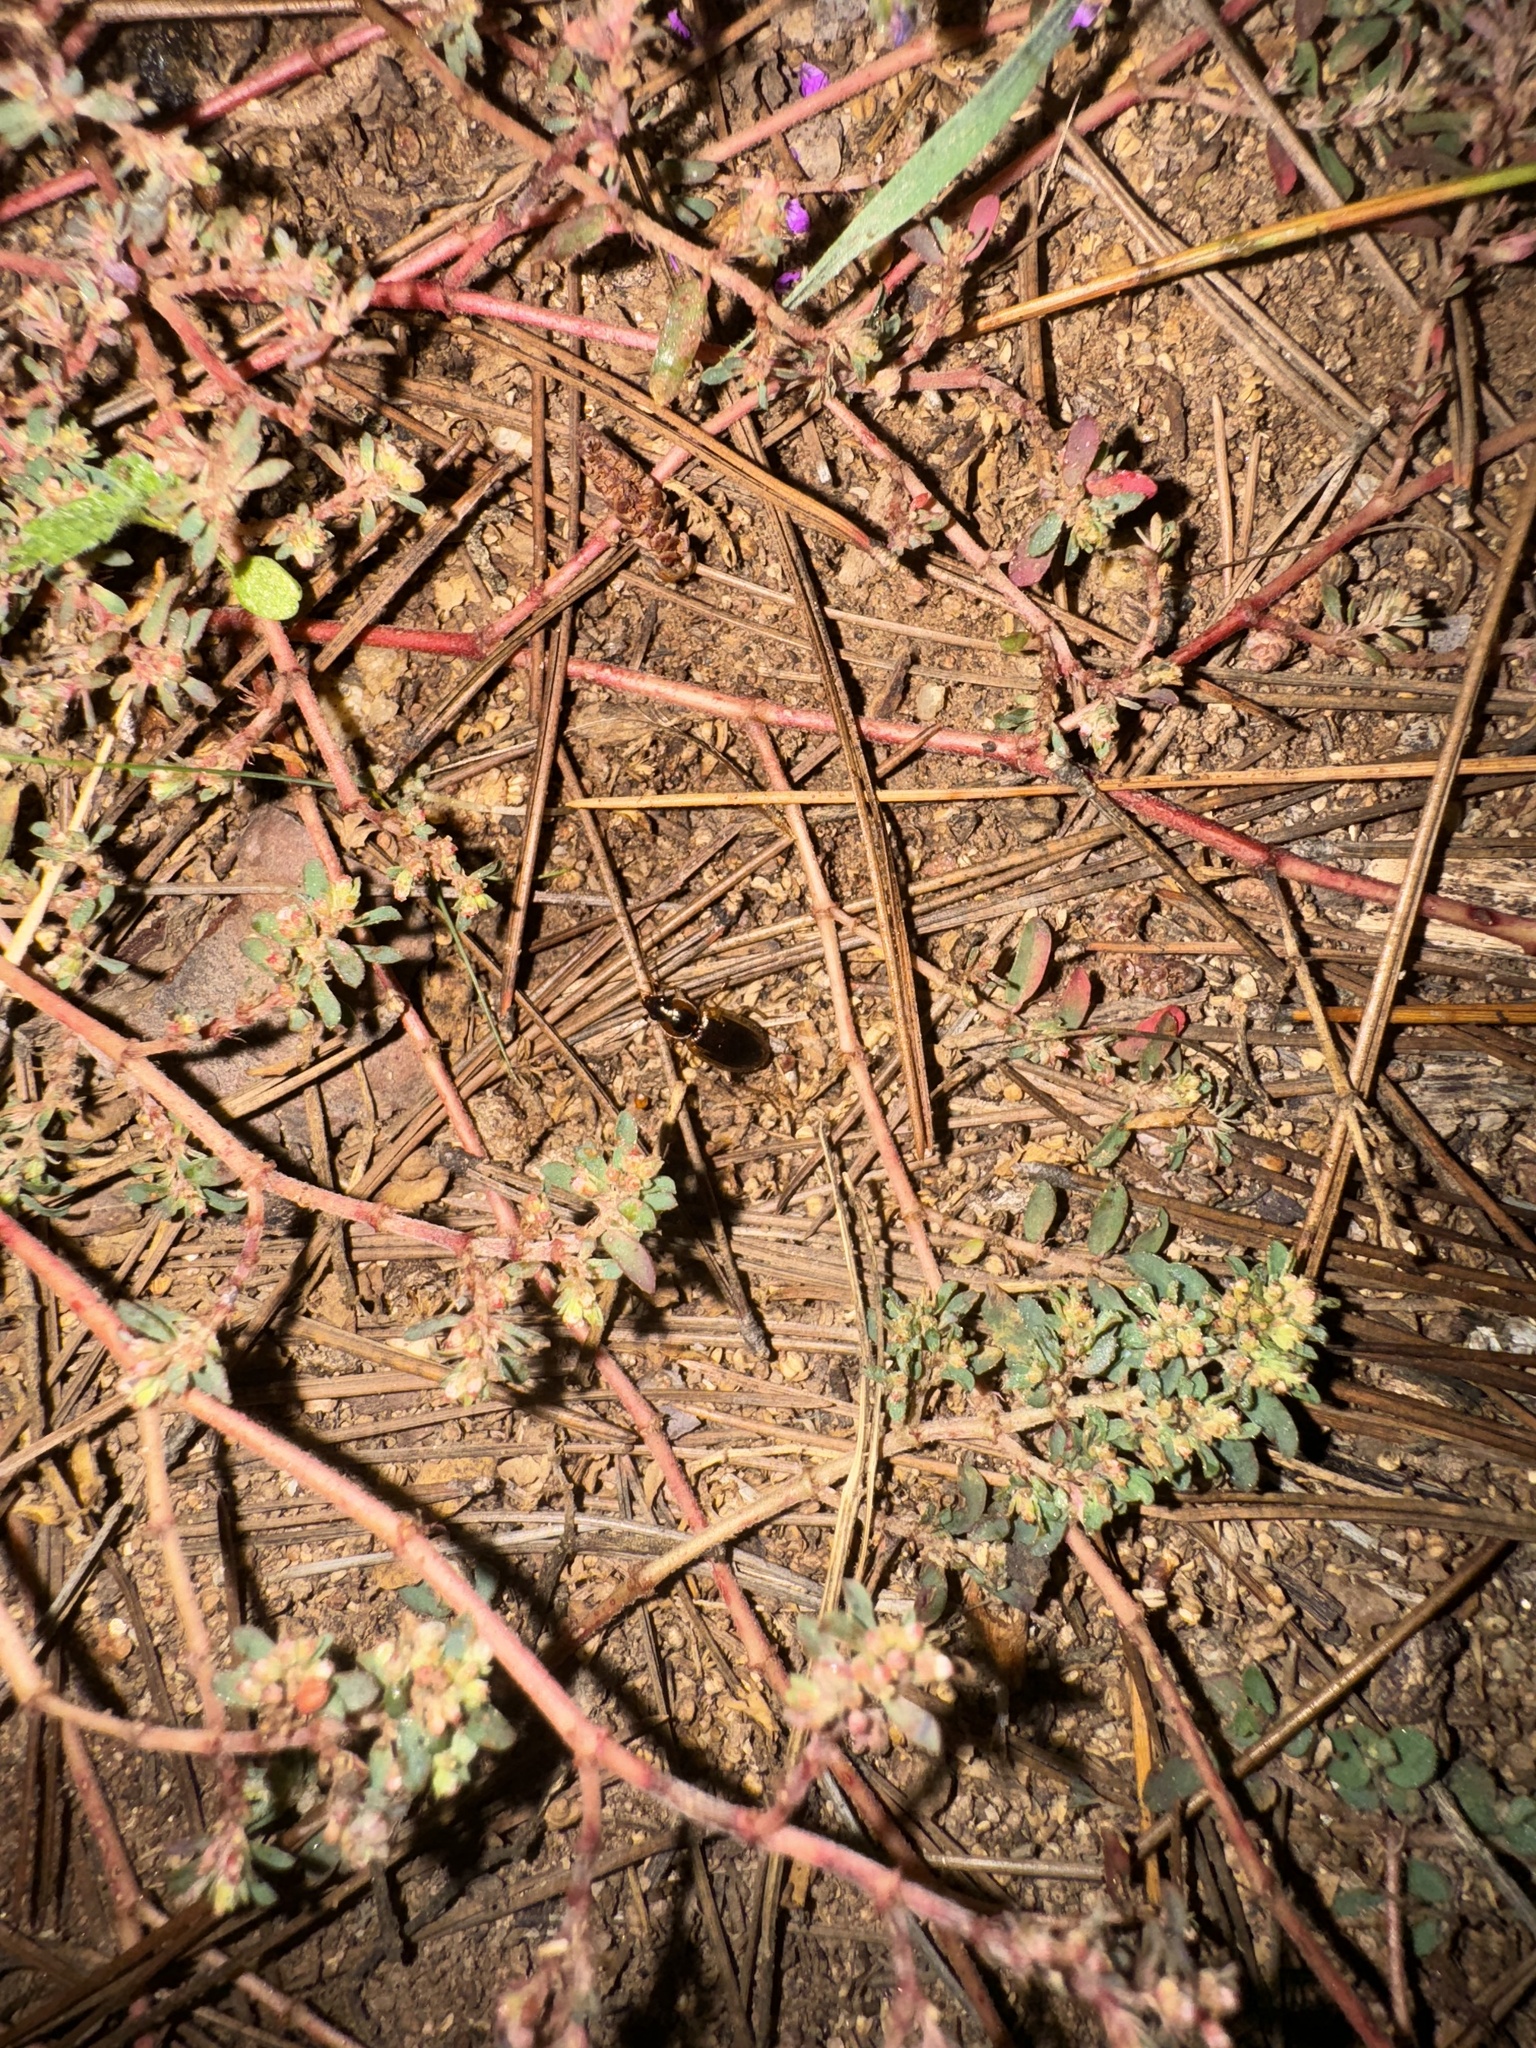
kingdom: Animalia
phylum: Arthropoda
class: Insecta
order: Coleoptera
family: Carabidae
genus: Tanystoma
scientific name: Tanystoma maculicolle
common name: Tule beetle
